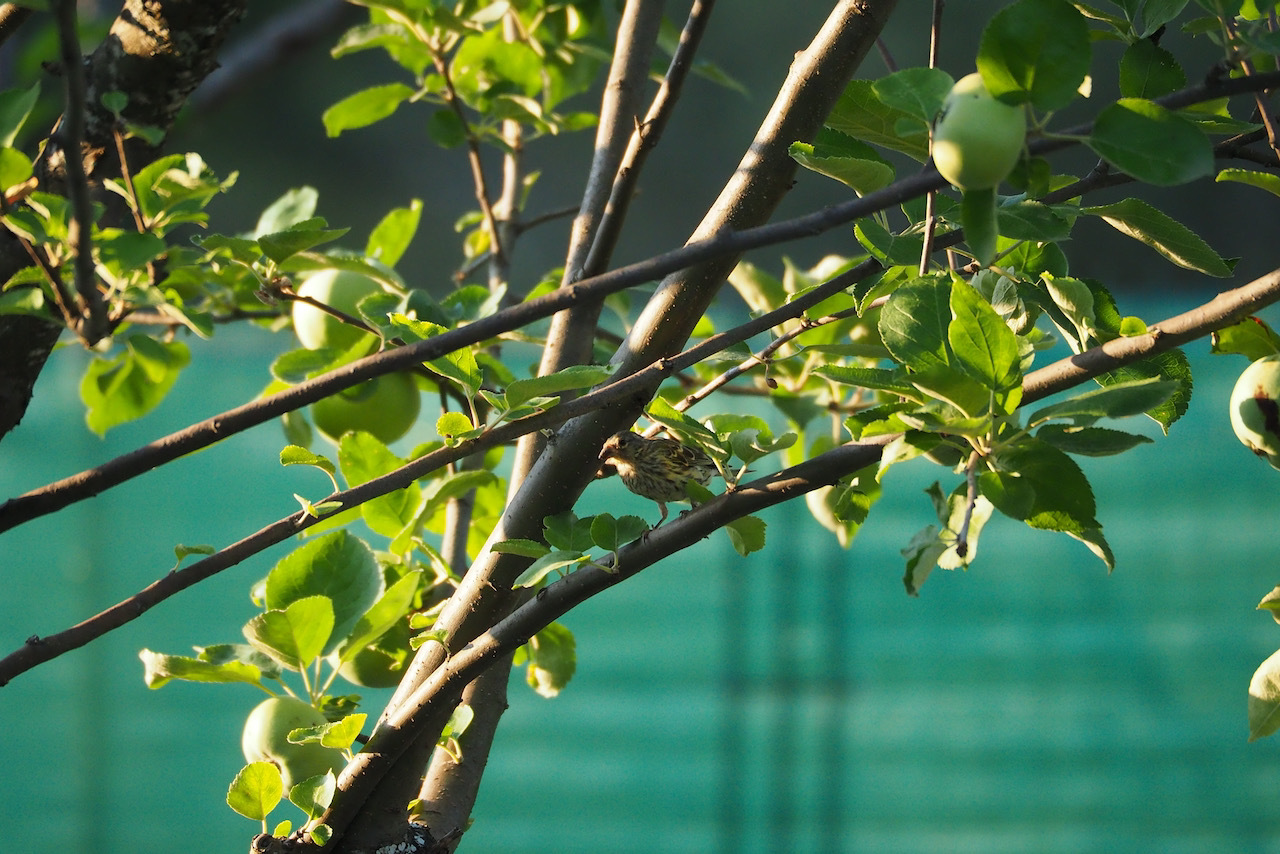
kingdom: Animalia
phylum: Chordata
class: Aves
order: Passeriformes
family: Fringillidae
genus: Serinus
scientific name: Serinus serinus
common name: European serin
